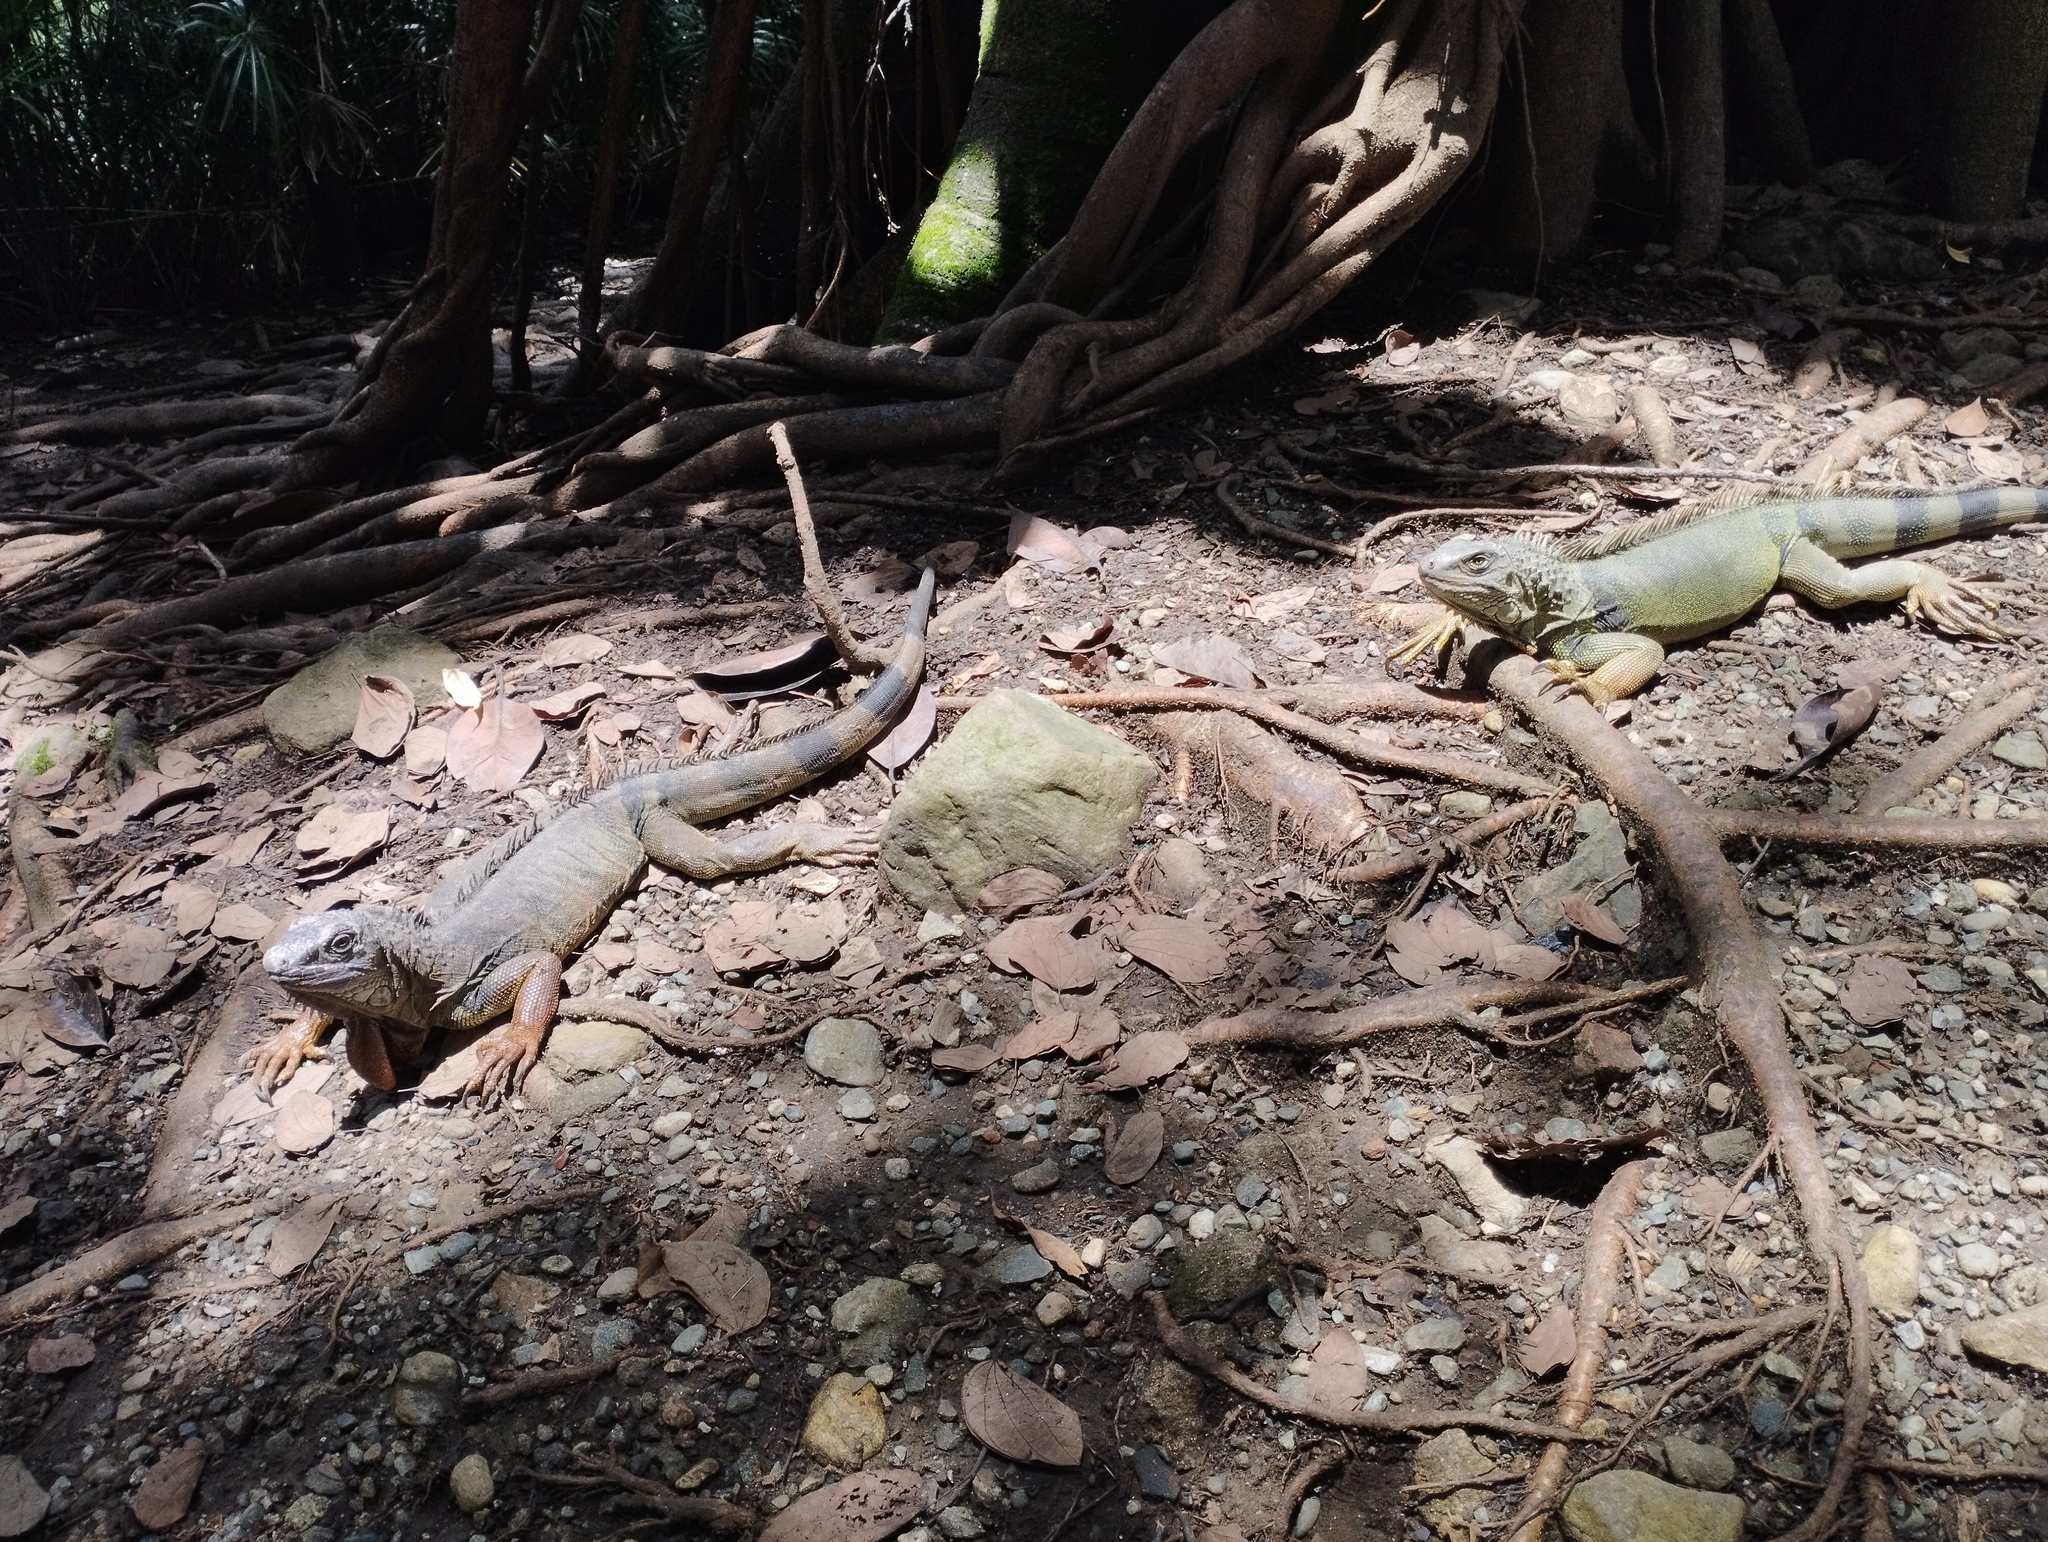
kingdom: Animalia
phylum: Chordata
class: Squamata
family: Iguanidae
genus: Iguana
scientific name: Iguana iguana
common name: Green iguana
